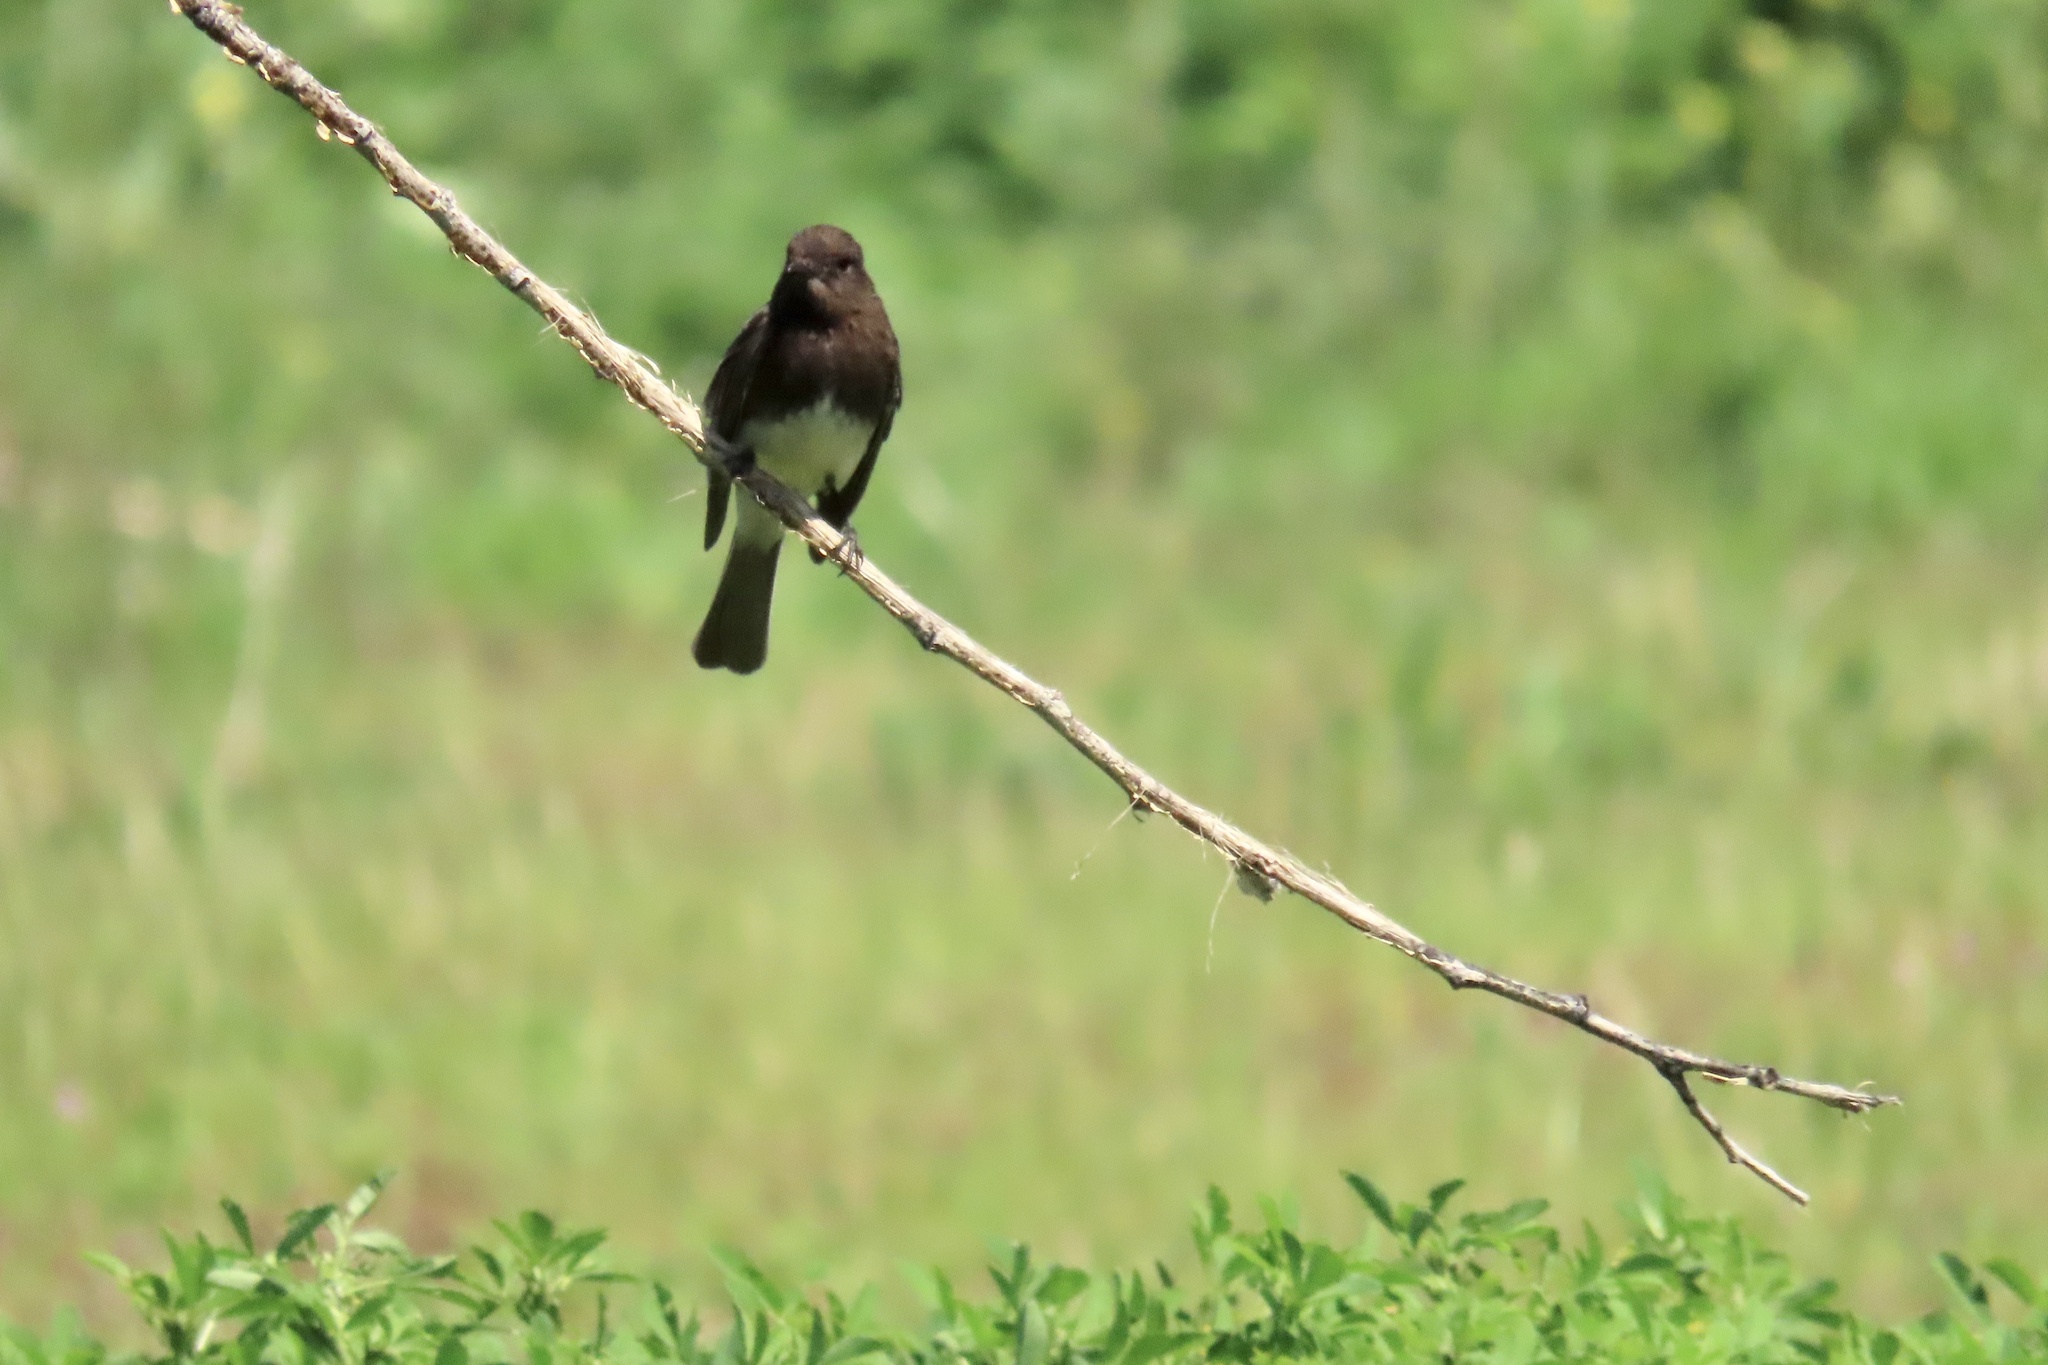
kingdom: Animalia
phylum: Chordata
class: Aves
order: Passeriformes
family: Tyrannidae
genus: Sayornis
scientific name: Sayornis nigricans
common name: Black phoebe
